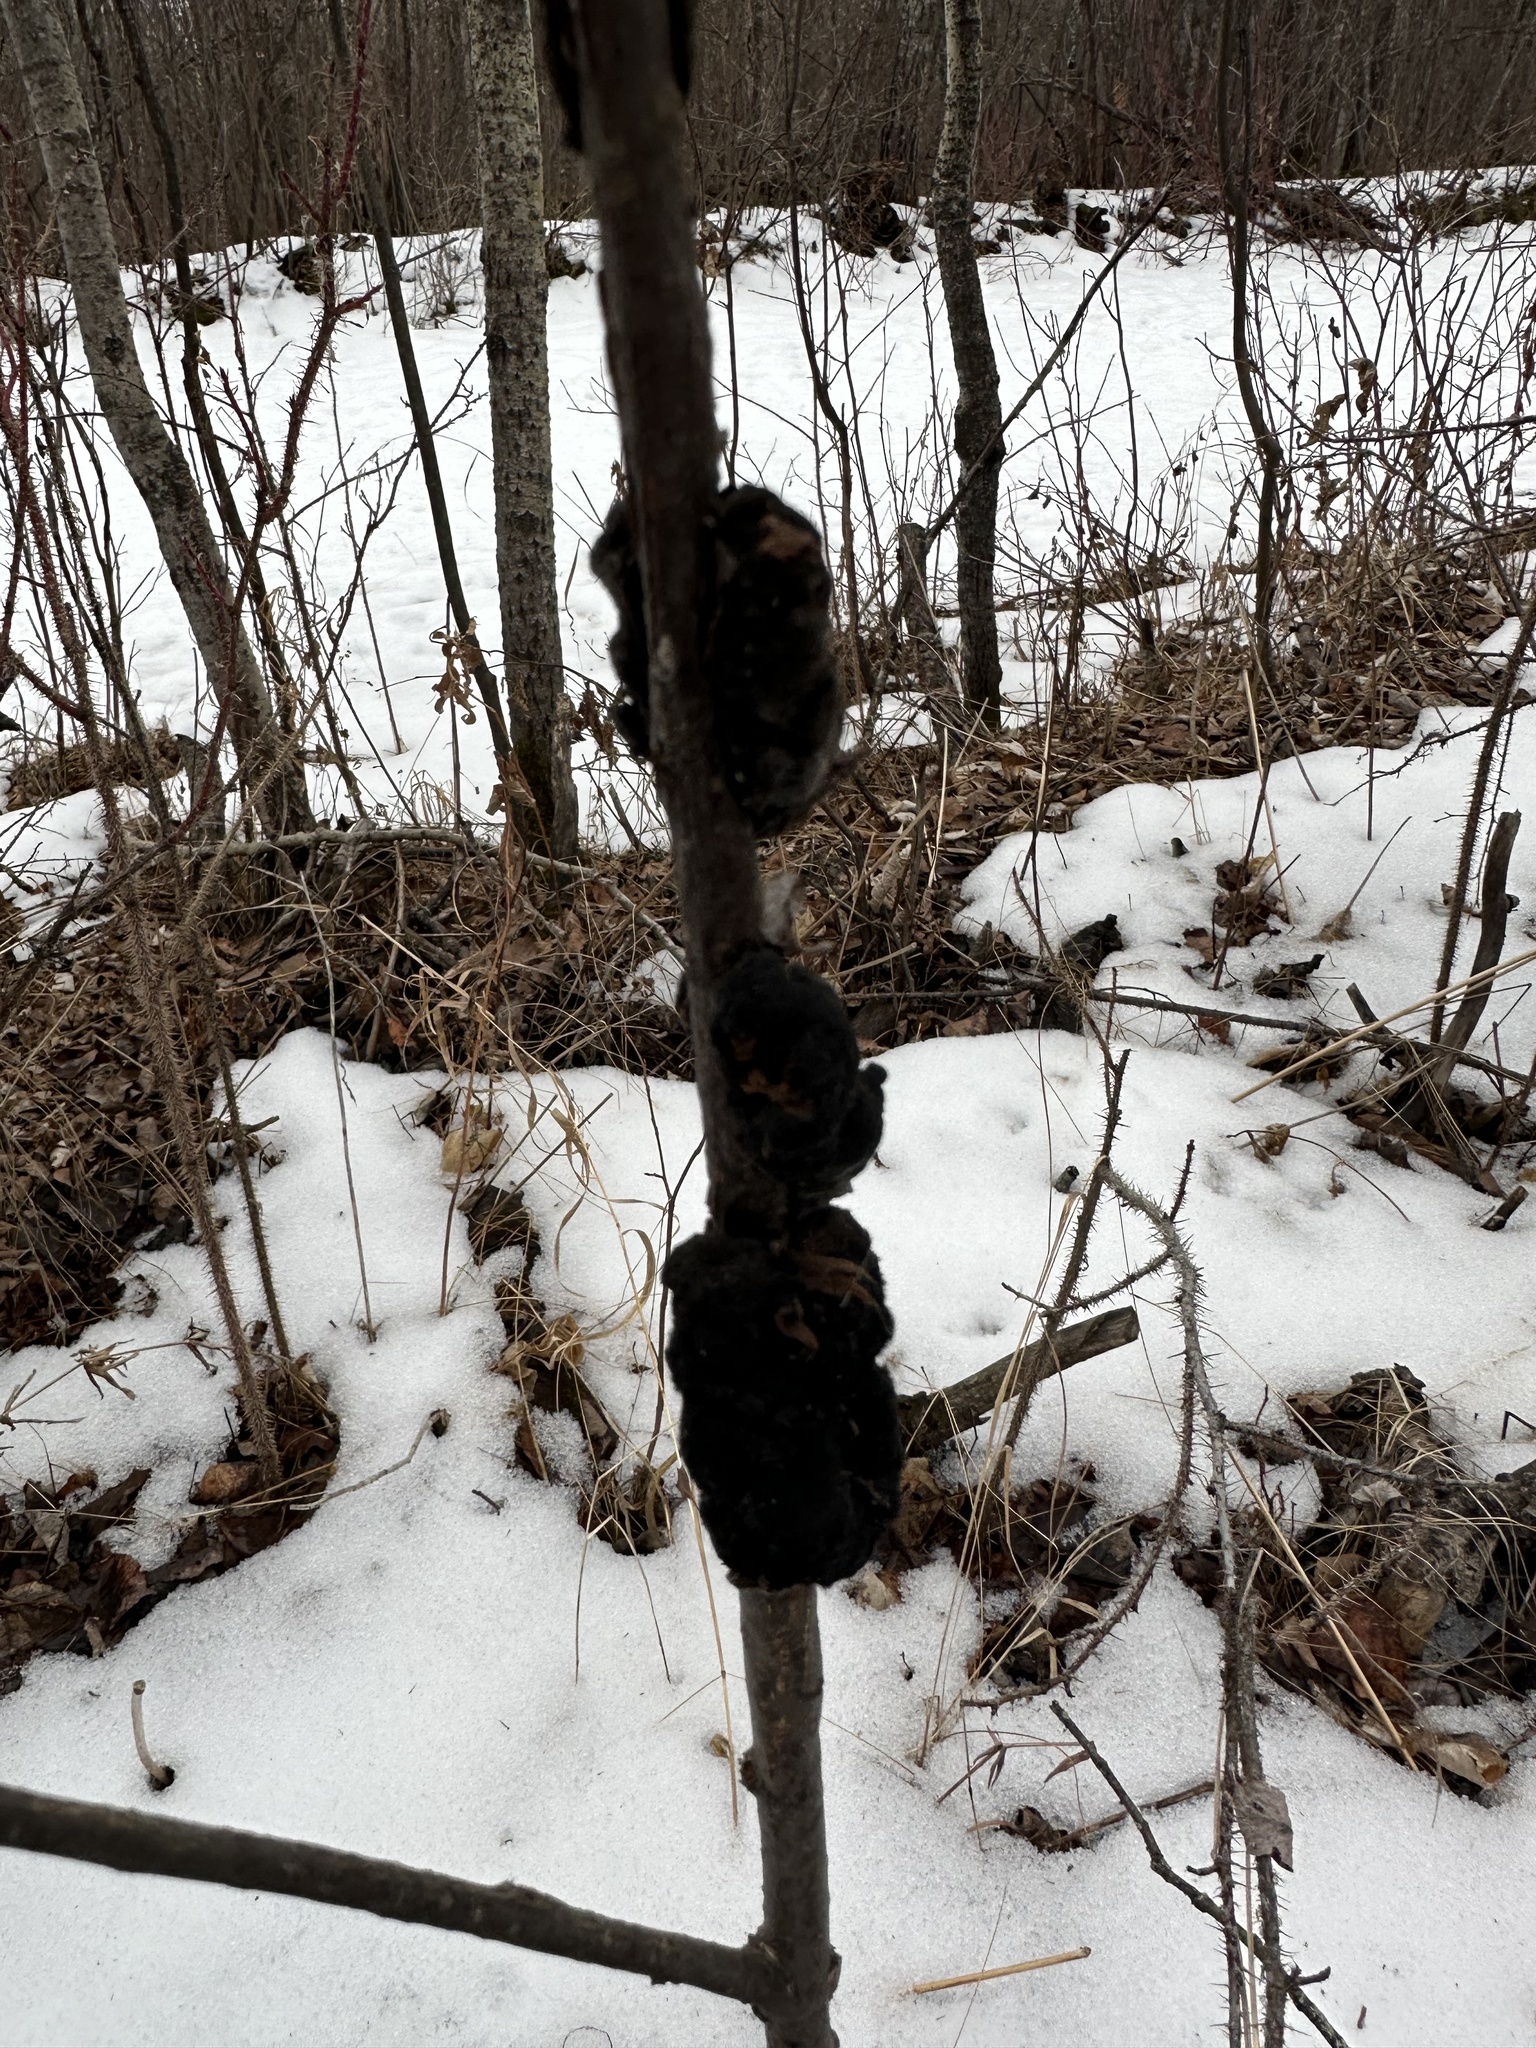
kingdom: Fungi
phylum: Ascomycota
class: Dothideomycetes
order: Venturiales
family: Venturiaceae
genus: Apiosporina
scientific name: Apiosporina morbosa
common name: Black knot
